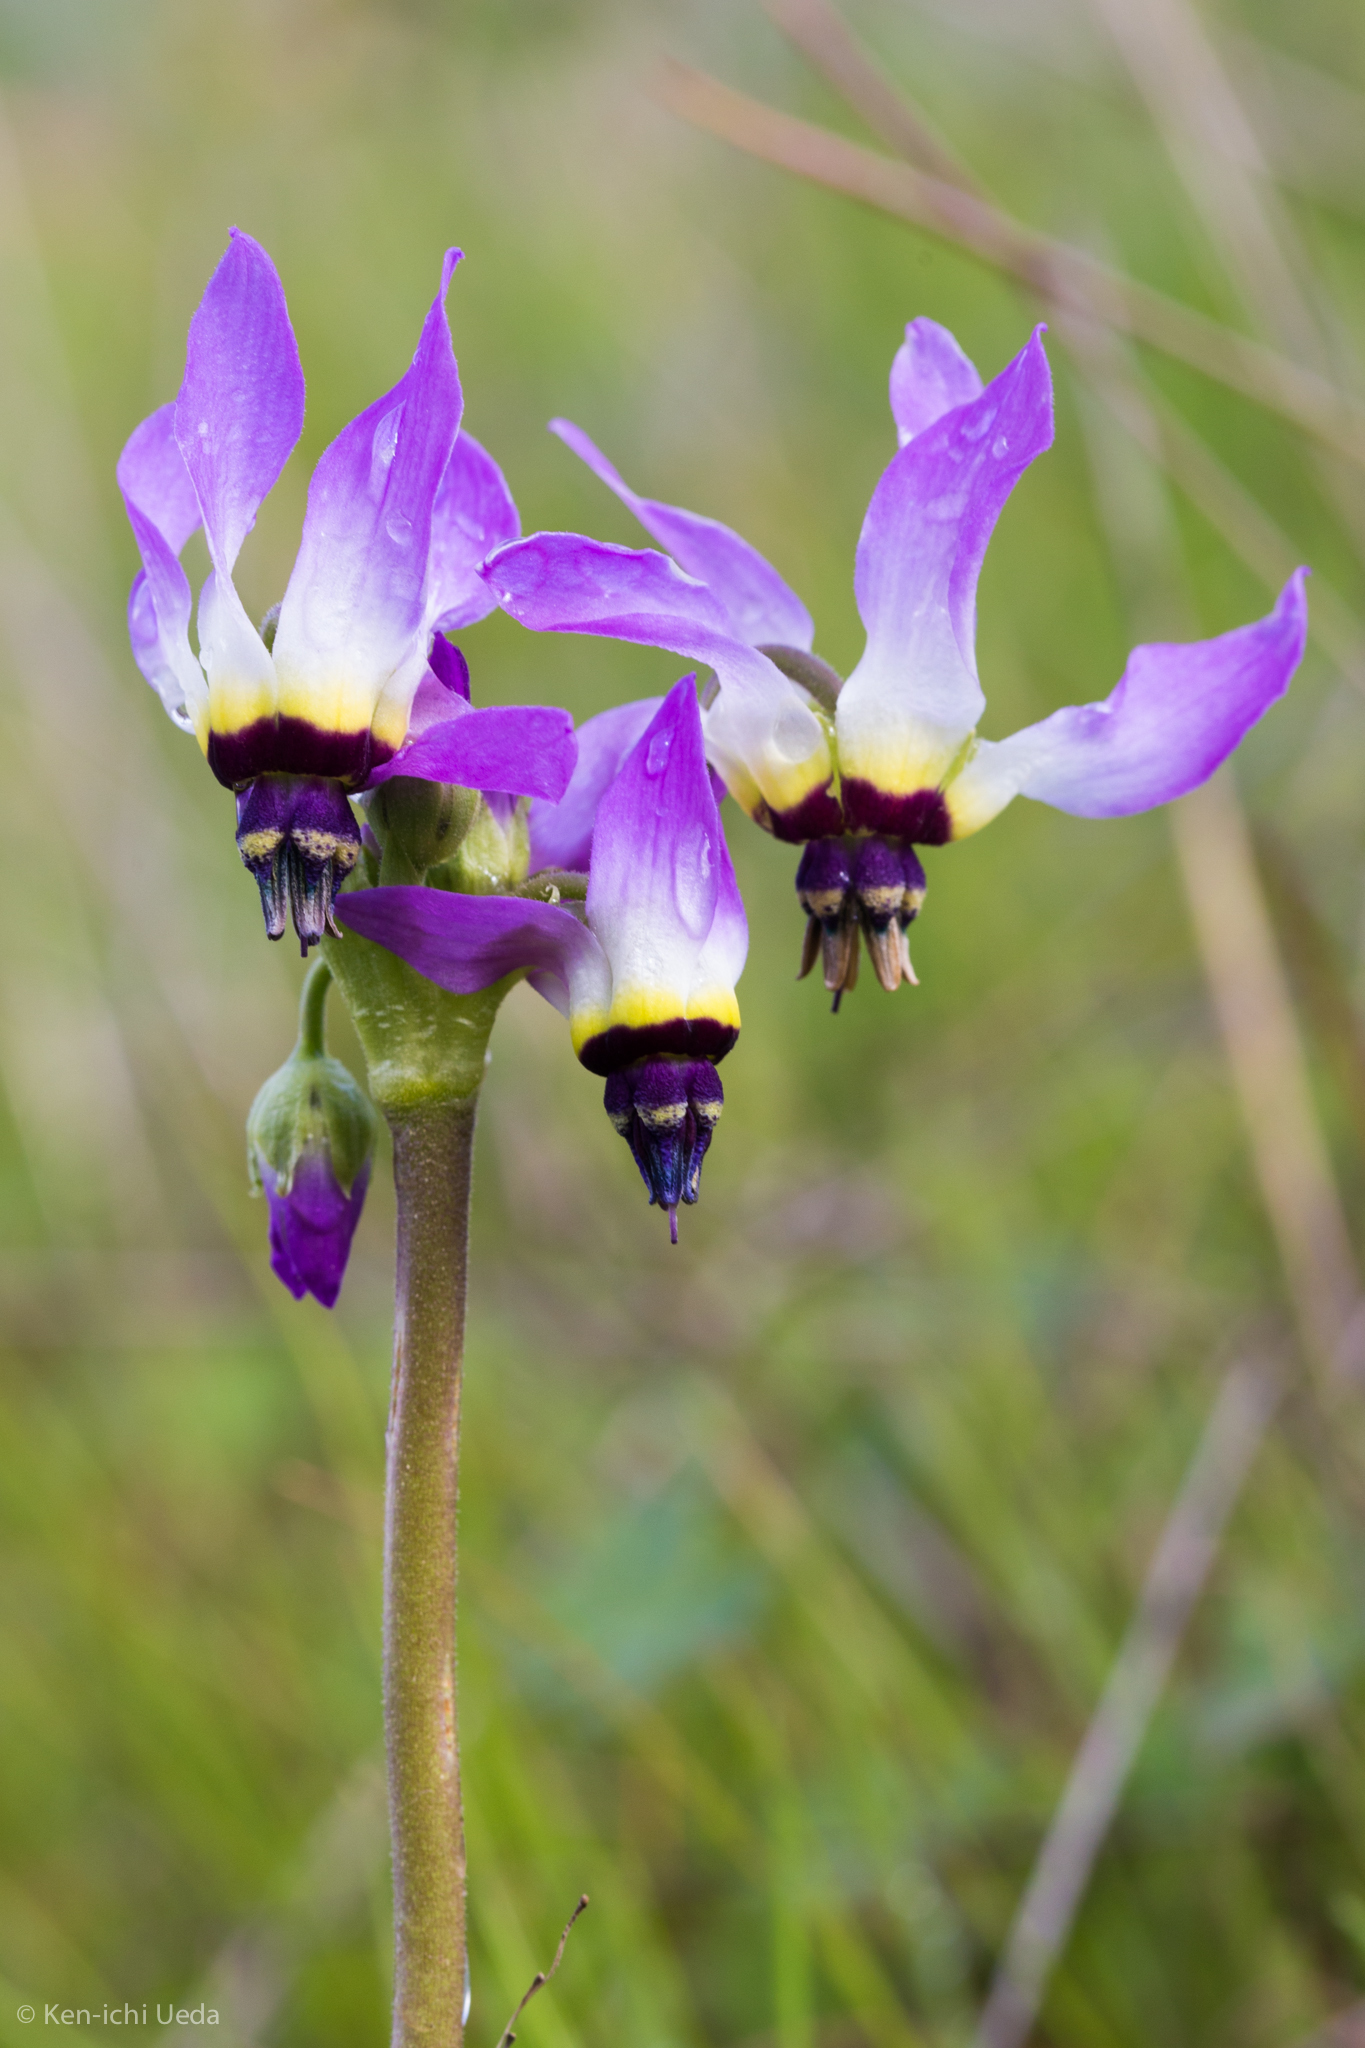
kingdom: Plantae
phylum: Tracheophyta
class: Magnoliopsida
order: Ericales
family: Primulaceae
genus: Dodecatheon
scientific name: Dodecatheon clevelandii
